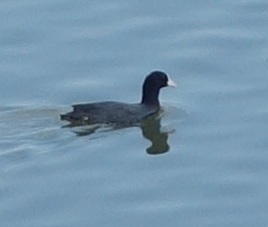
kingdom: Animalia
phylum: Chordata
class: Aves
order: Gruiformes
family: Rallidae
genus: Fulica
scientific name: Fulica atra
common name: Eurasian coot
